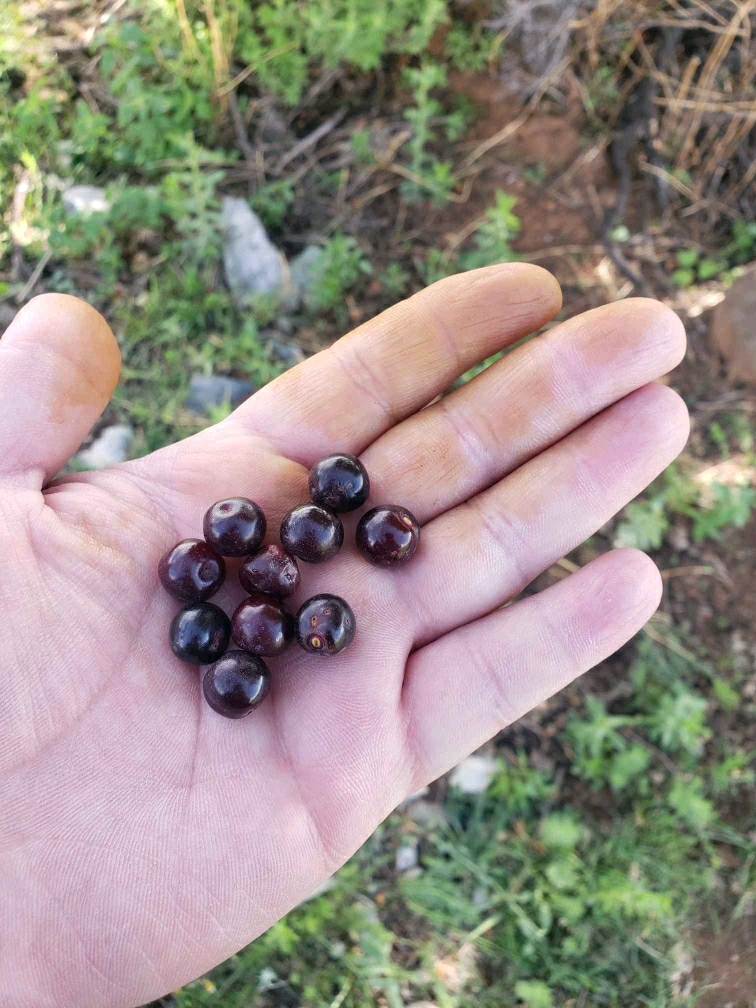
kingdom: Plantae
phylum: Tracheophyta
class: Magnoliopsida
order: Rosales
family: Rosaceae
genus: Prunus
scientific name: Prunus serotina
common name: Black cherry
